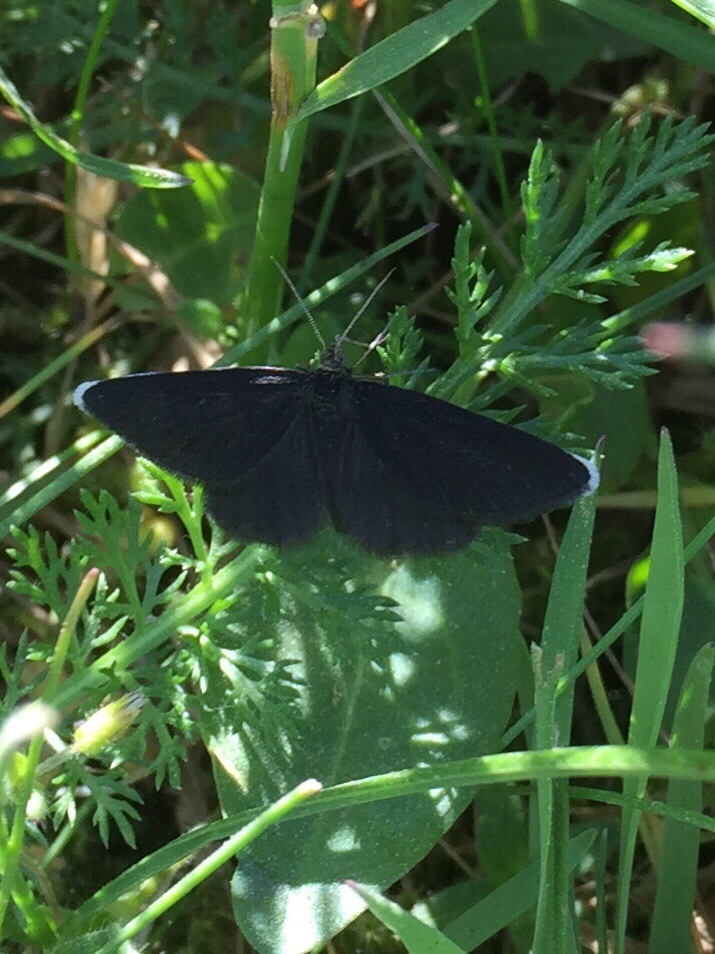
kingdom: Animalia
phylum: Arthropoda
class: Insecta
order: Lepidoptera
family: Geometridae
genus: Odezia
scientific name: Odezia atrata
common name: Chimney sweeper
